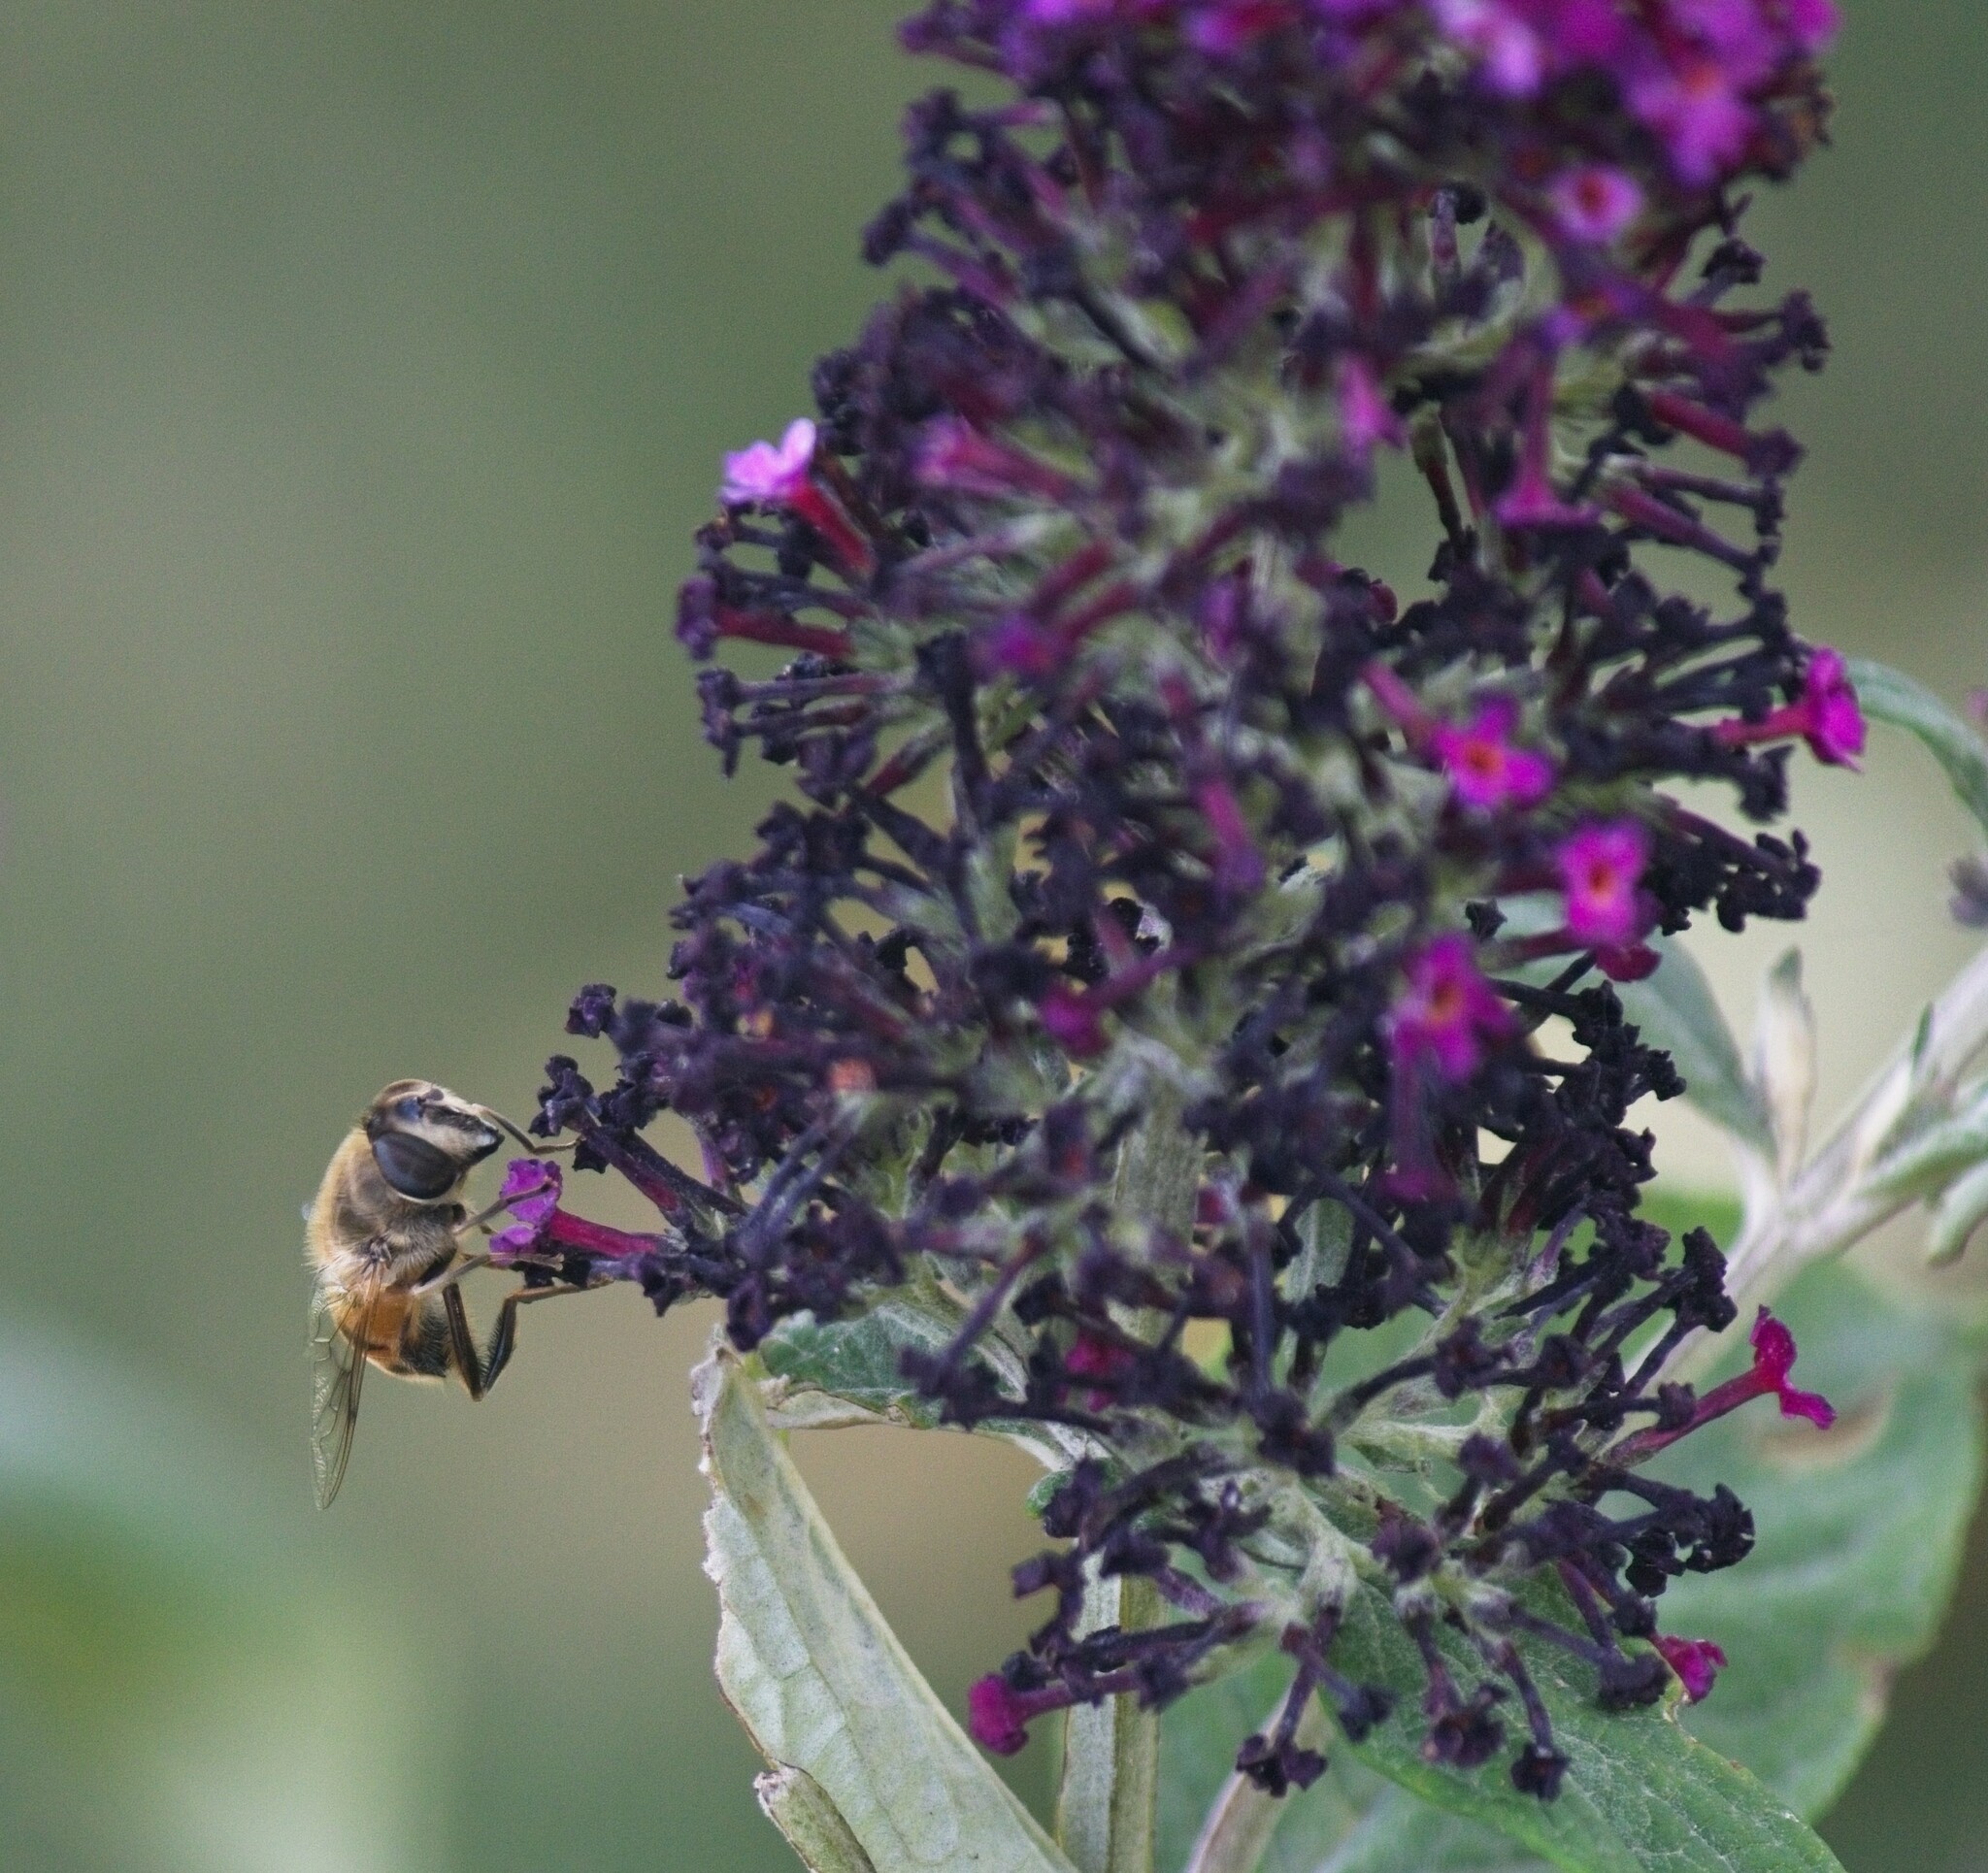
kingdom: Animalia
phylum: Arthropoda
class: Insecta
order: Diptera
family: Syrphidae
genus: Eristalis
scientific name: Eristalis tenax
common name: Drone fly
